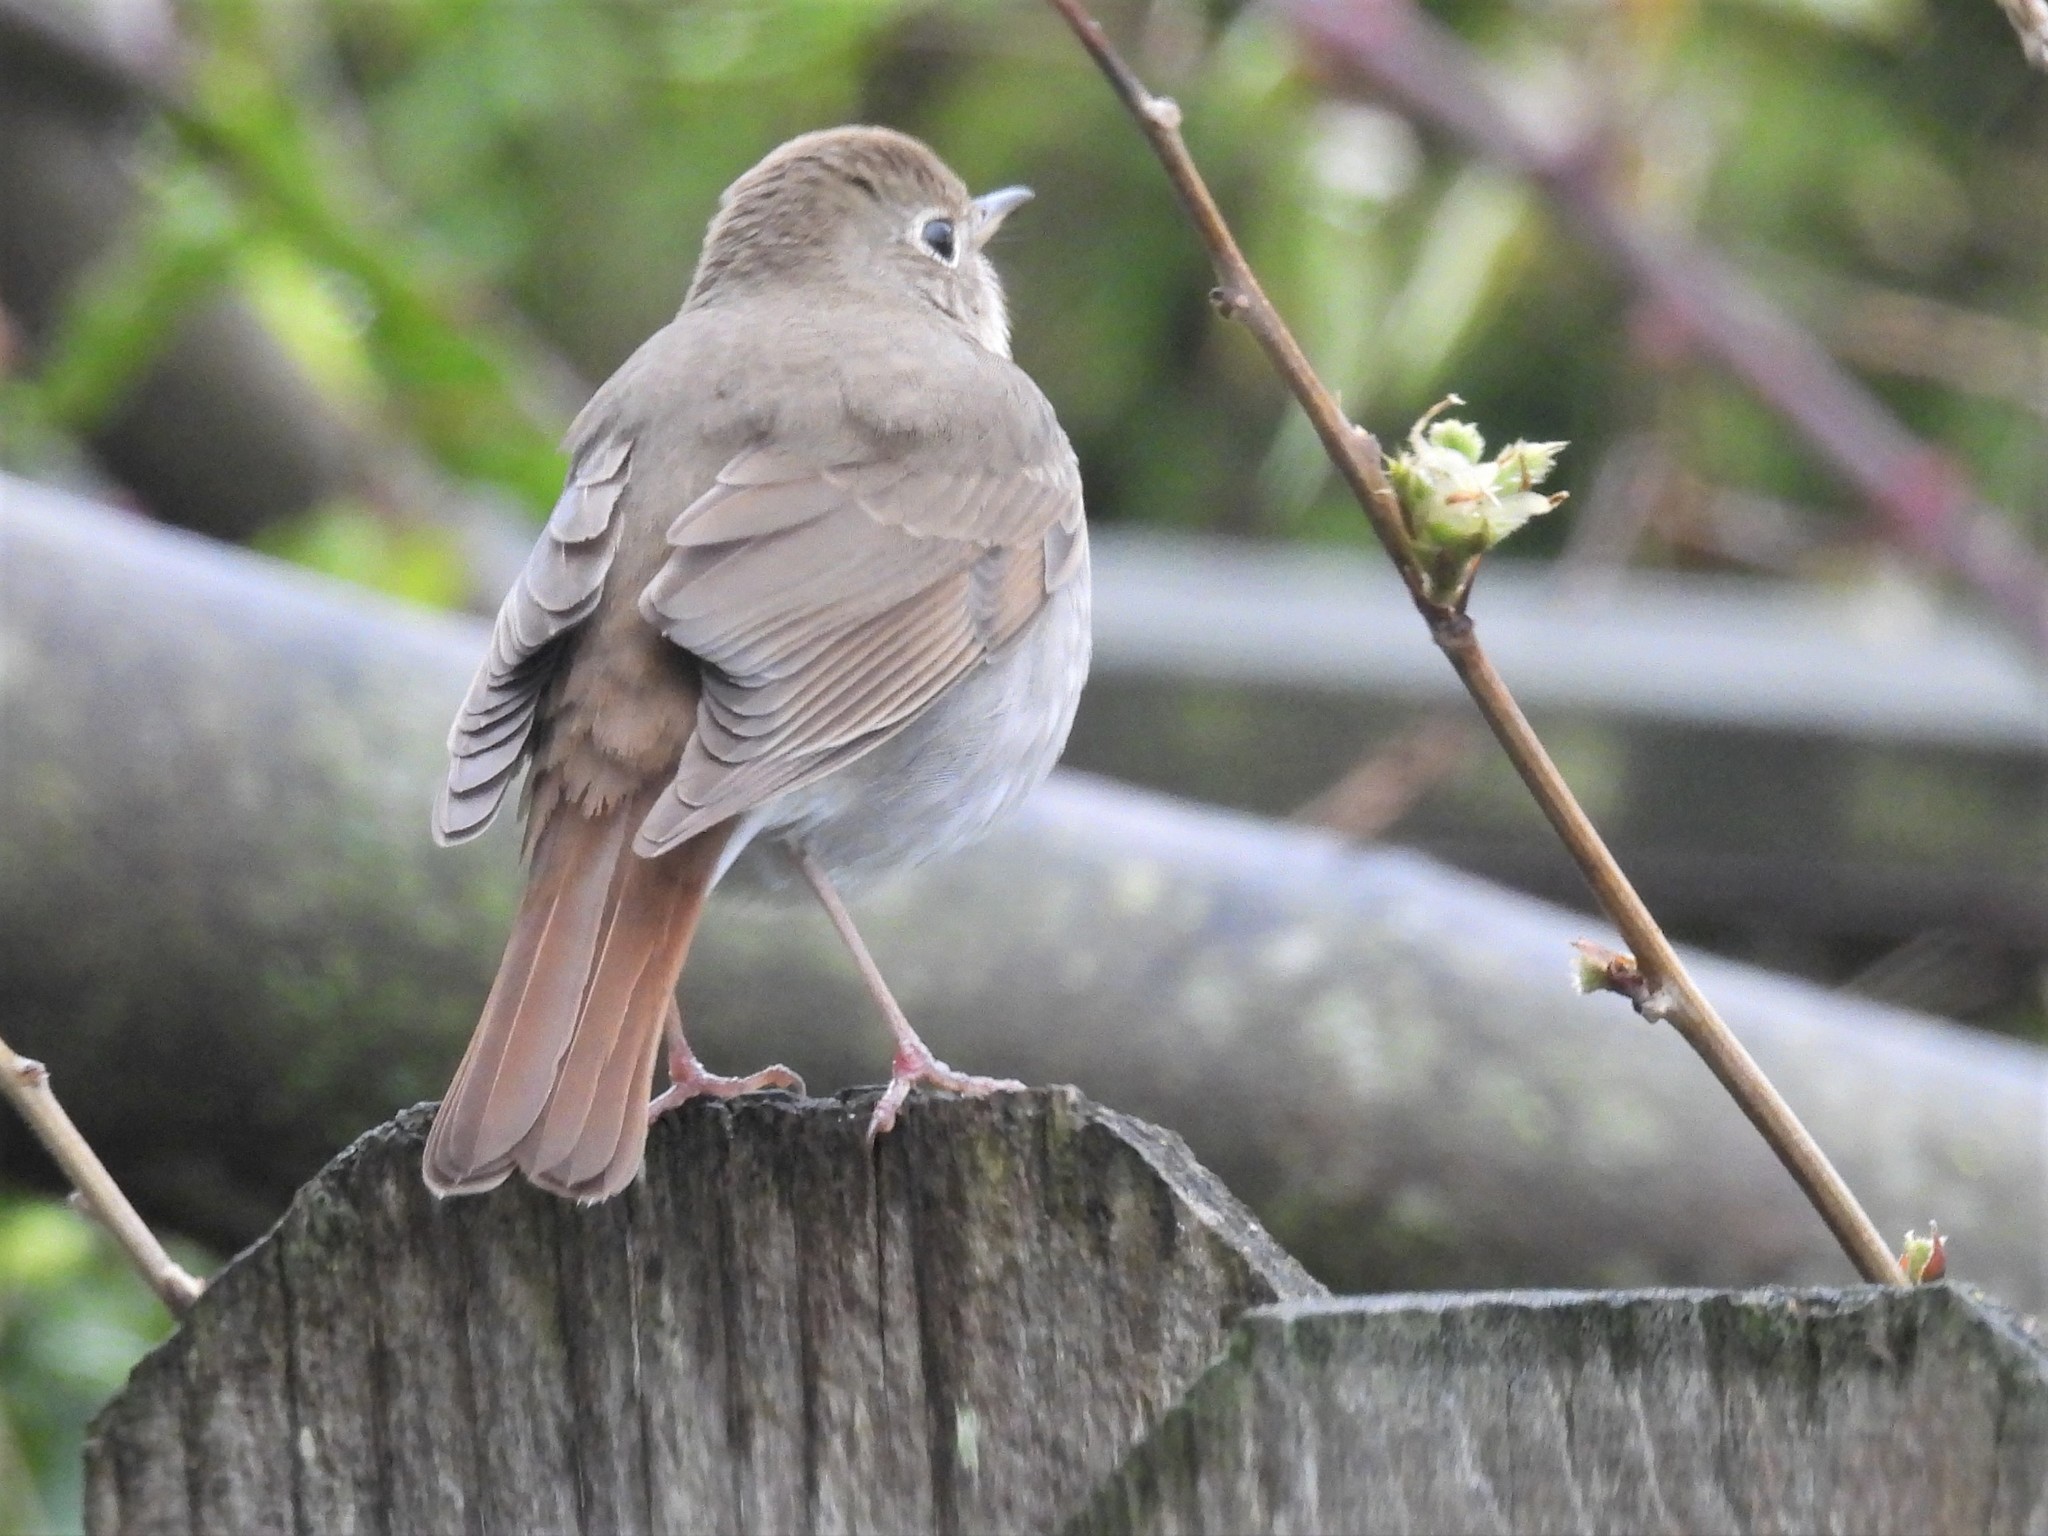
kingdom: Animalia
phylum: Chordata
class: Aves
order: Passeriformes
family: Turdidae
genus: Catharus
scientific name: Catharus guttatus
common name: Hermit thrush
